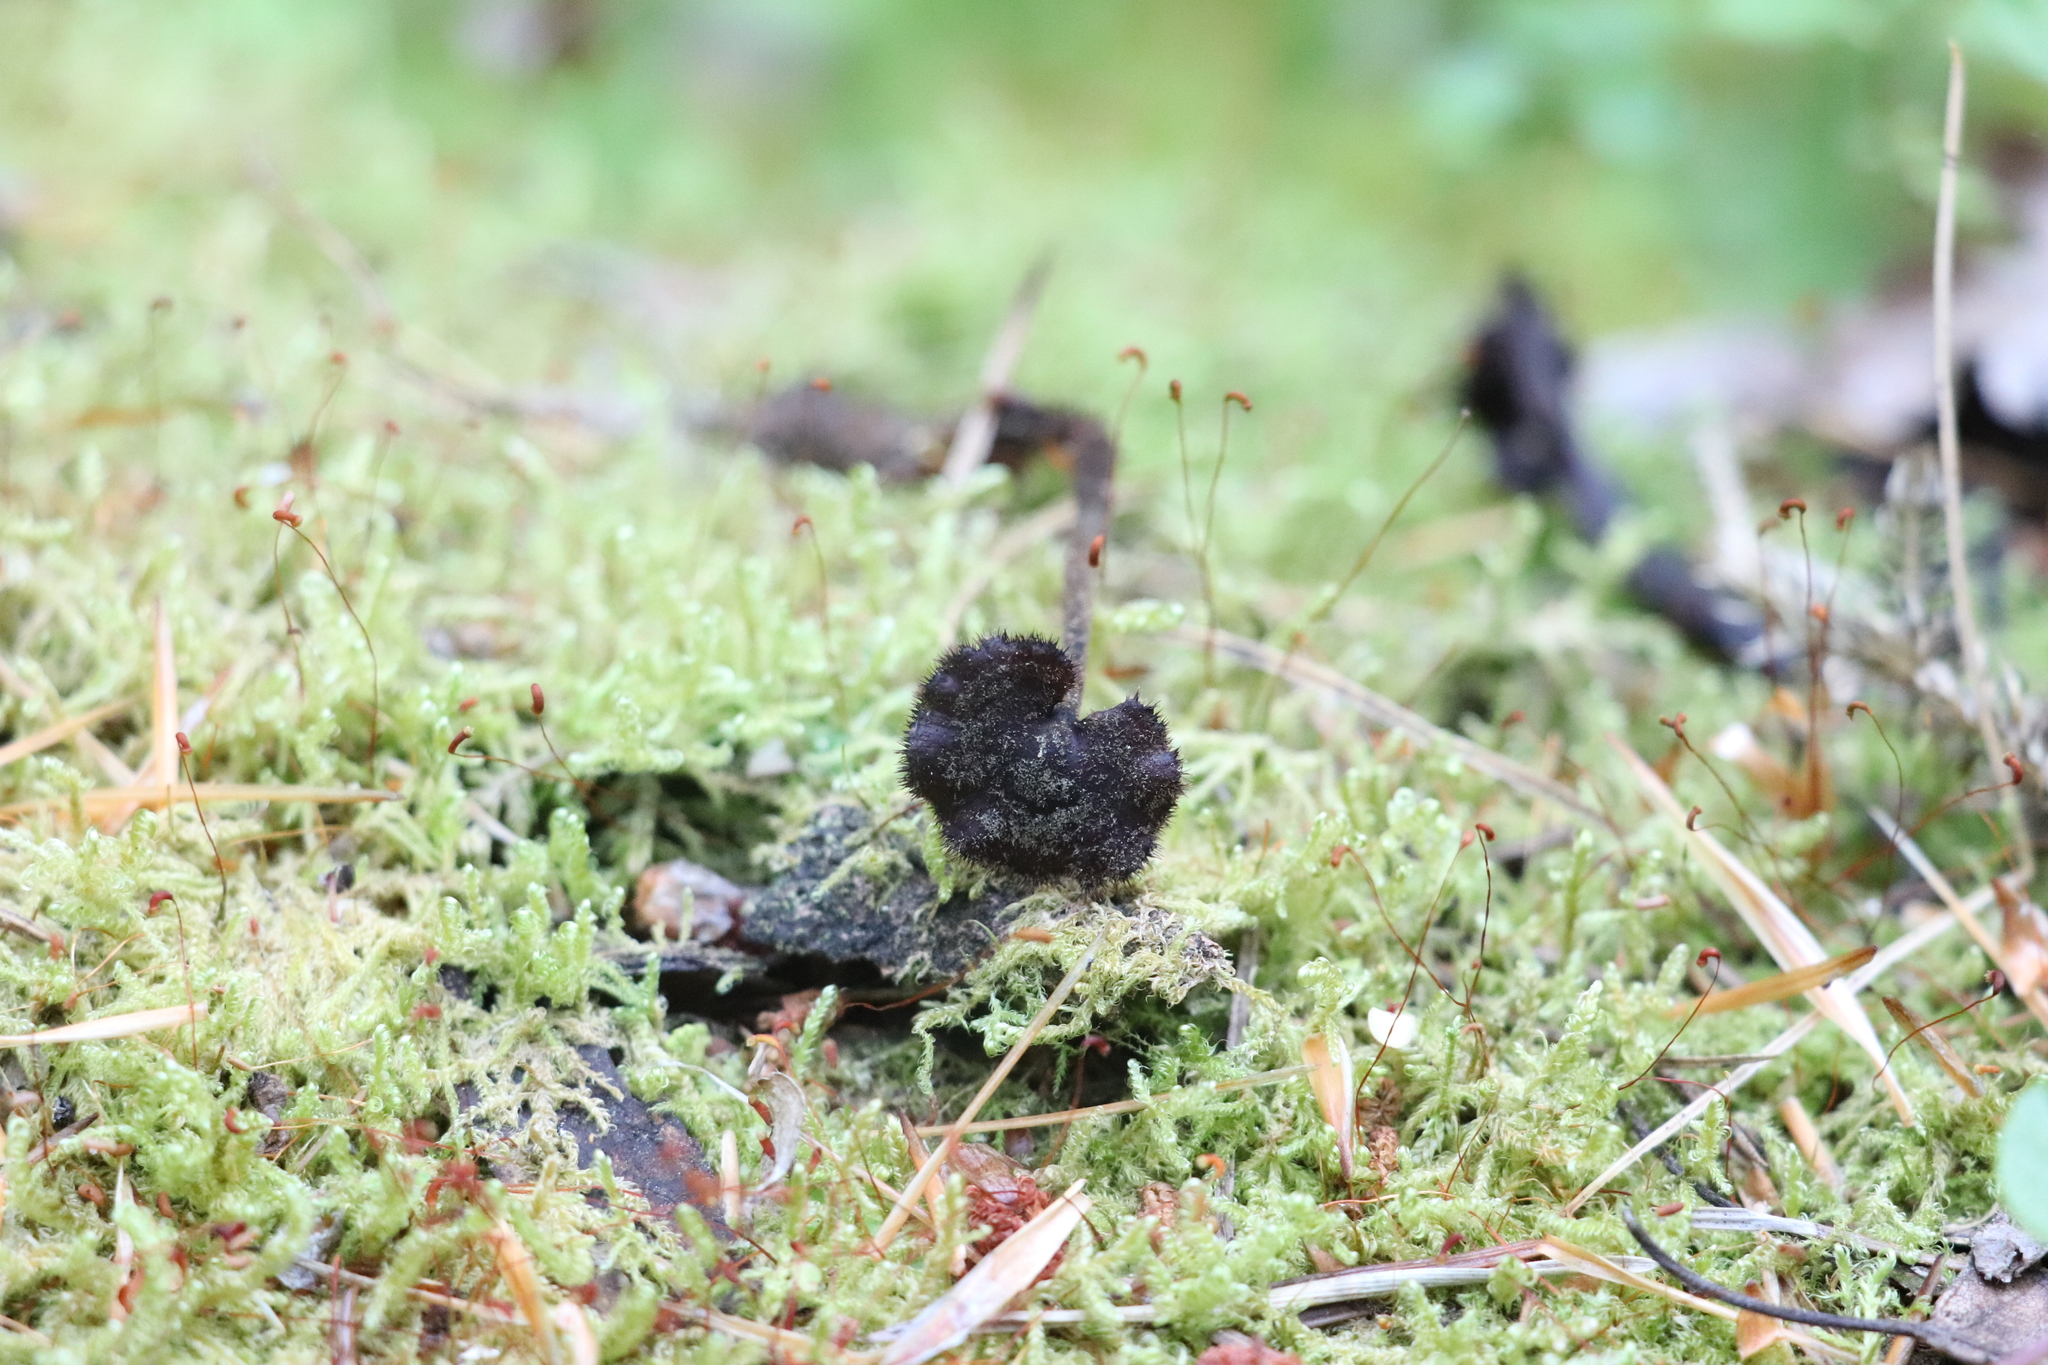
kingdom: Fungi
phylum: Basidiomycota
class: Agaricomycetes
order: Russulales
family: Auriscalpiaceae
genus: Auriscalpium
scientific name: Auriscalpium vulgare
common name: Earpick fungus
